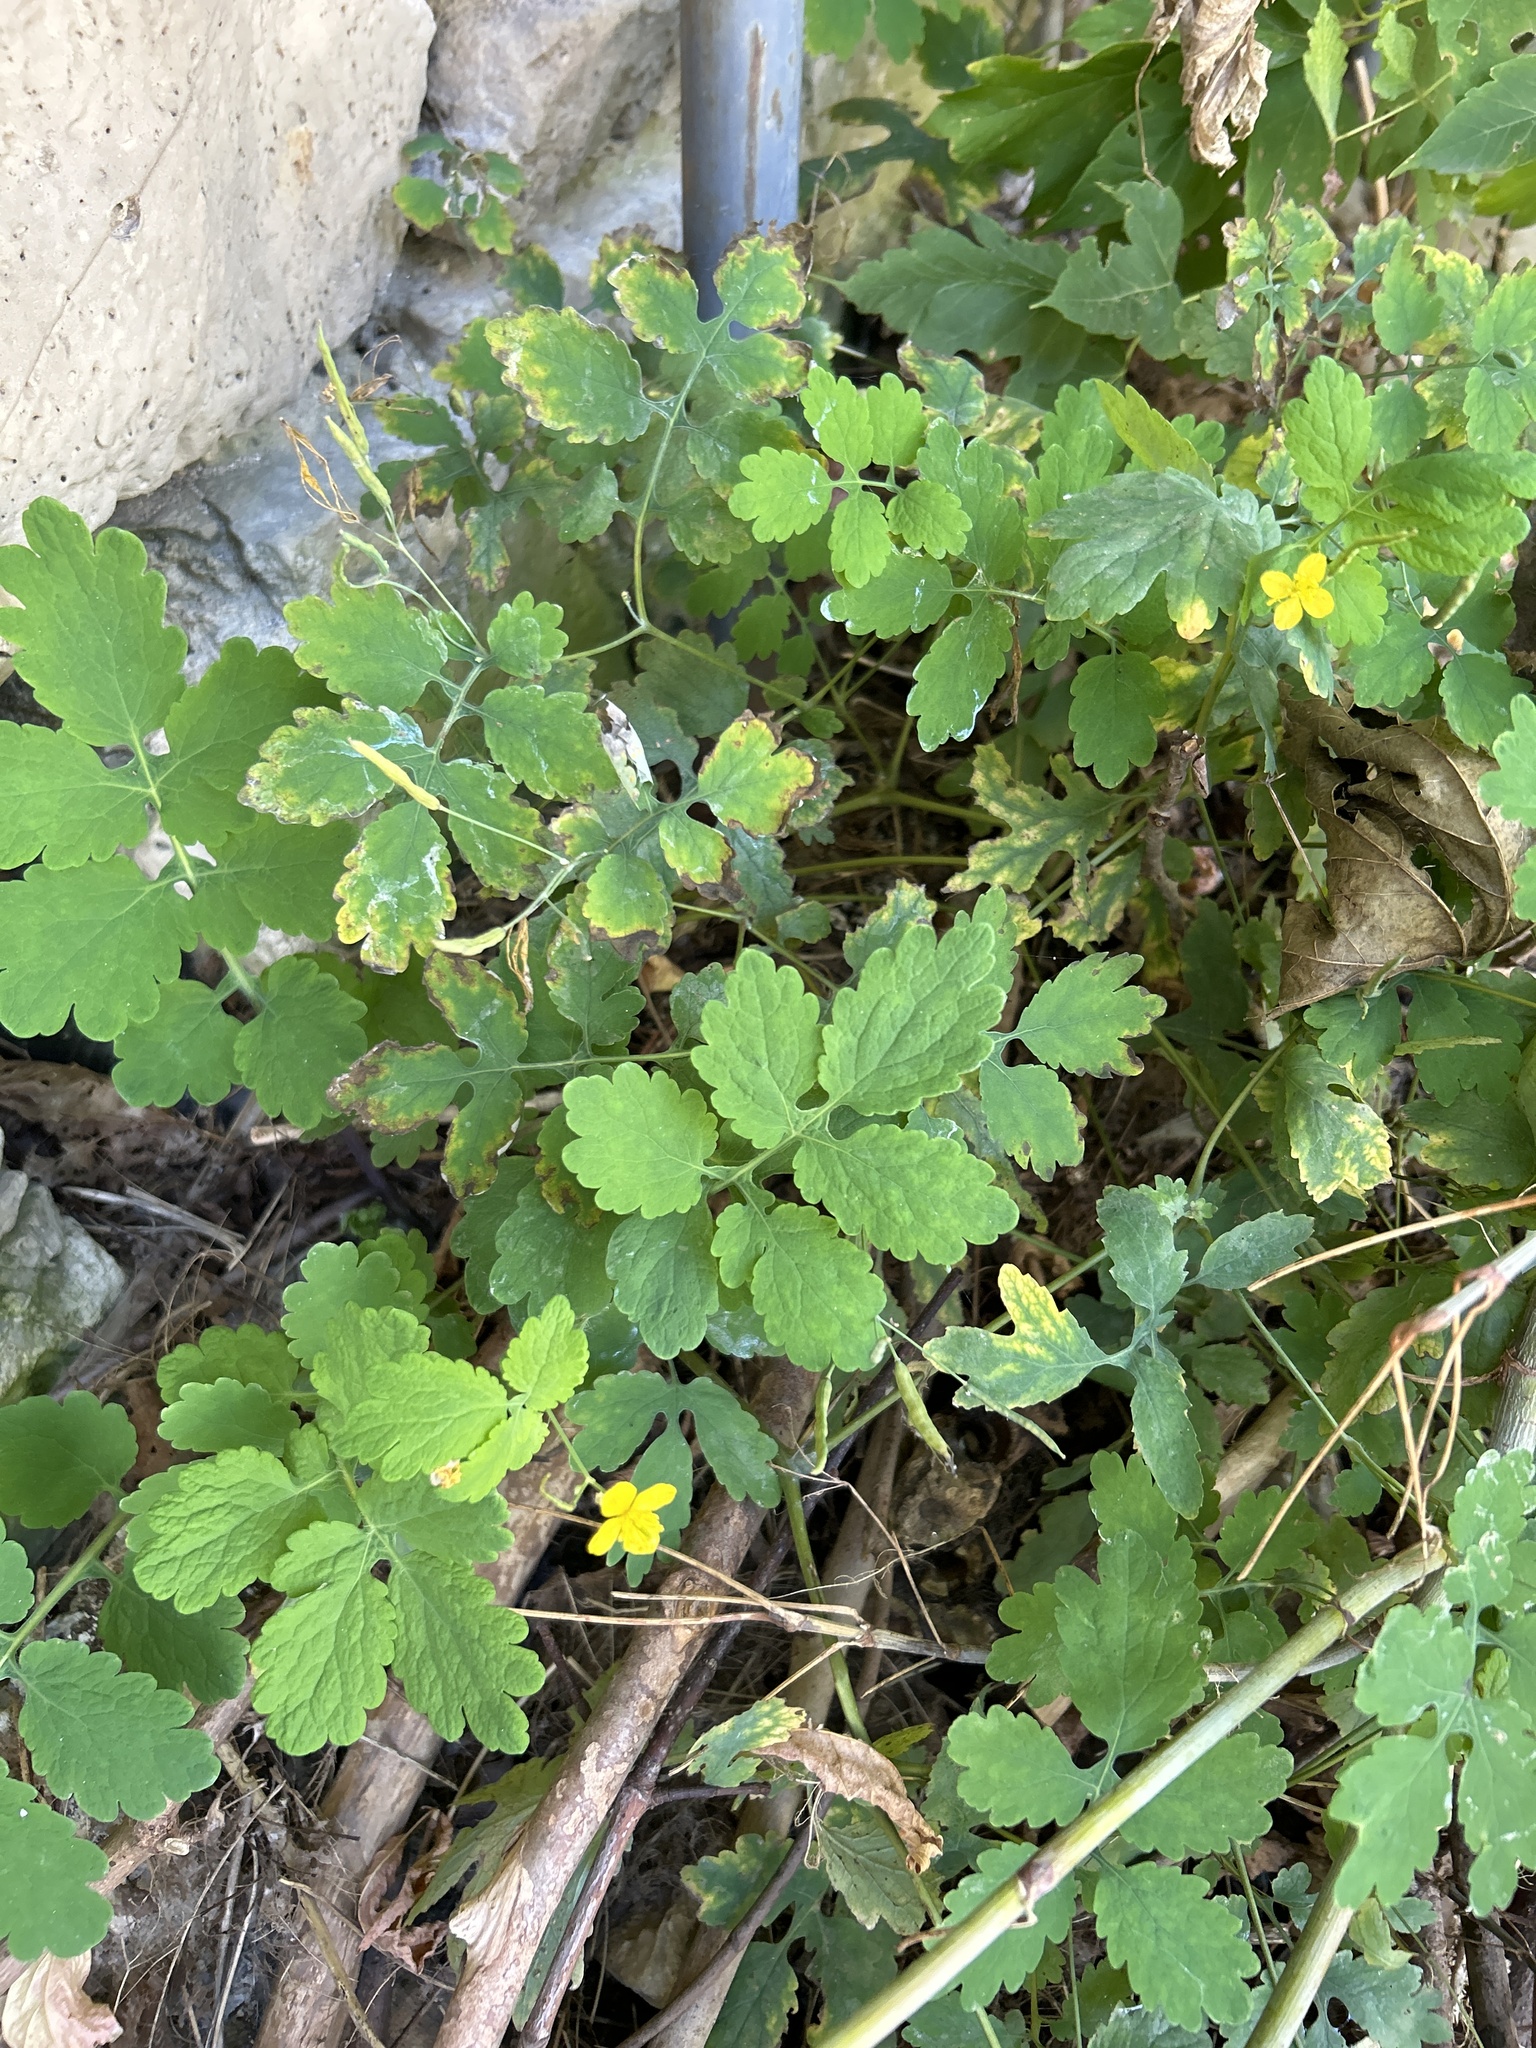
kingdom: Plantae
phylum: Tracheophyta
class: Magnoliopsida
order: Ranunculales
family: Papaveraceae
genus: Chelidonium
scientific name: Chelidonium majus
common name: Greater celandine
